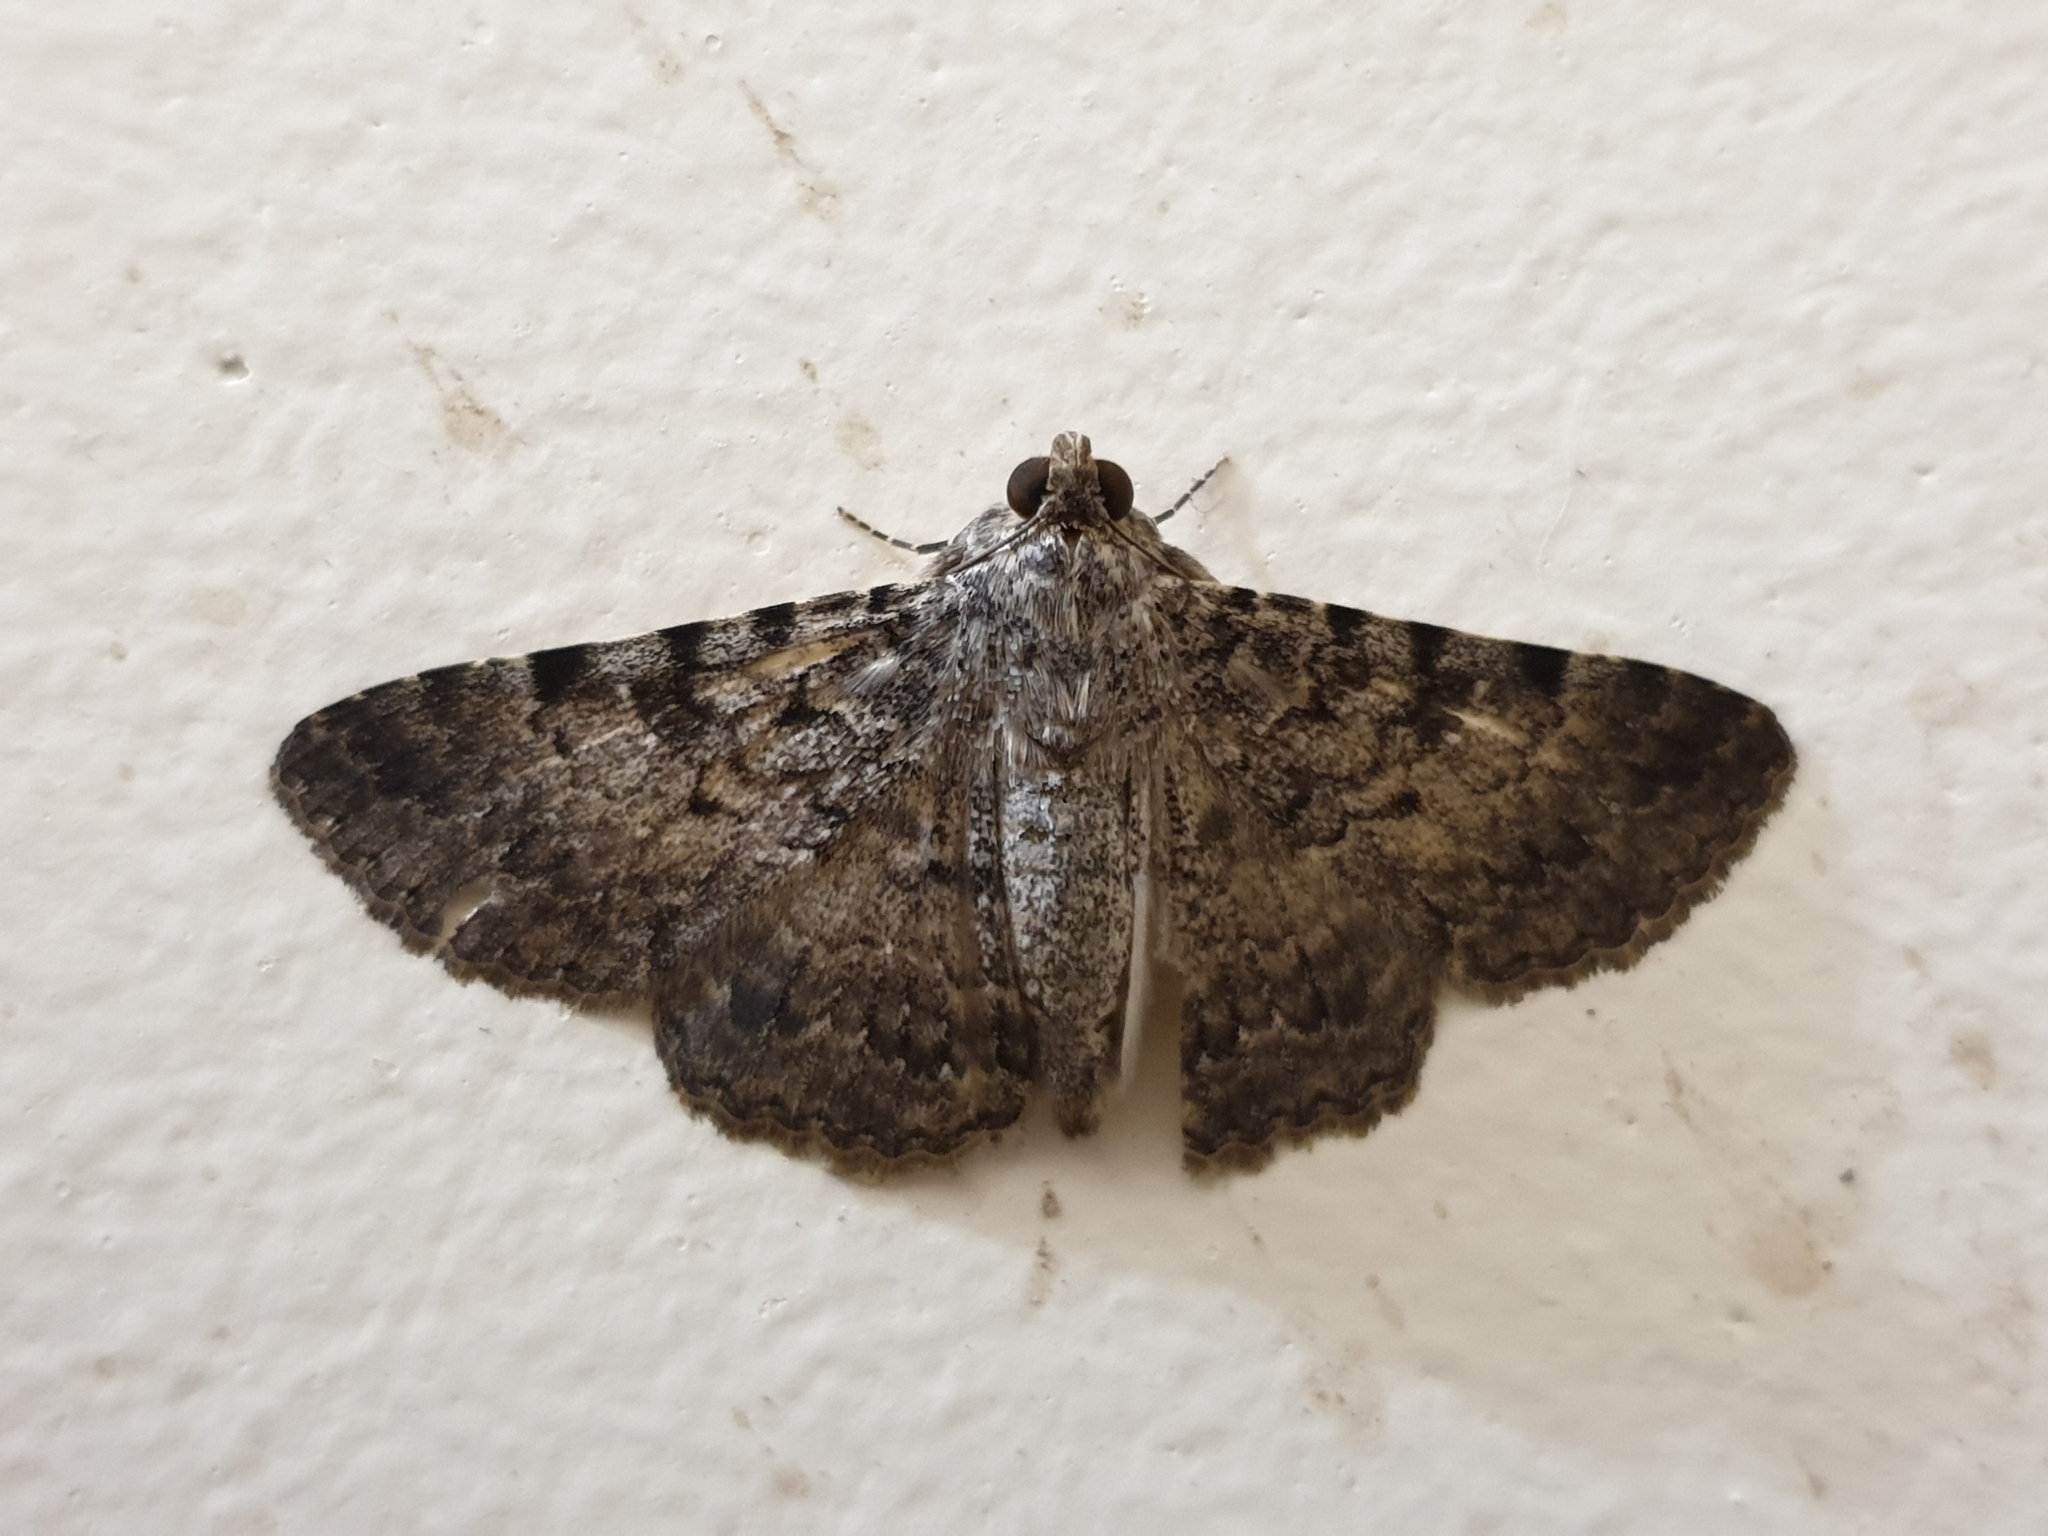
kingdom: Animalia
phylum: Arthropoda
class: Insecta
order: Lepidoptera
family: Erebidae
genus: Polydesma
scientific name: Polydesma boarmoides
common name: Moth
